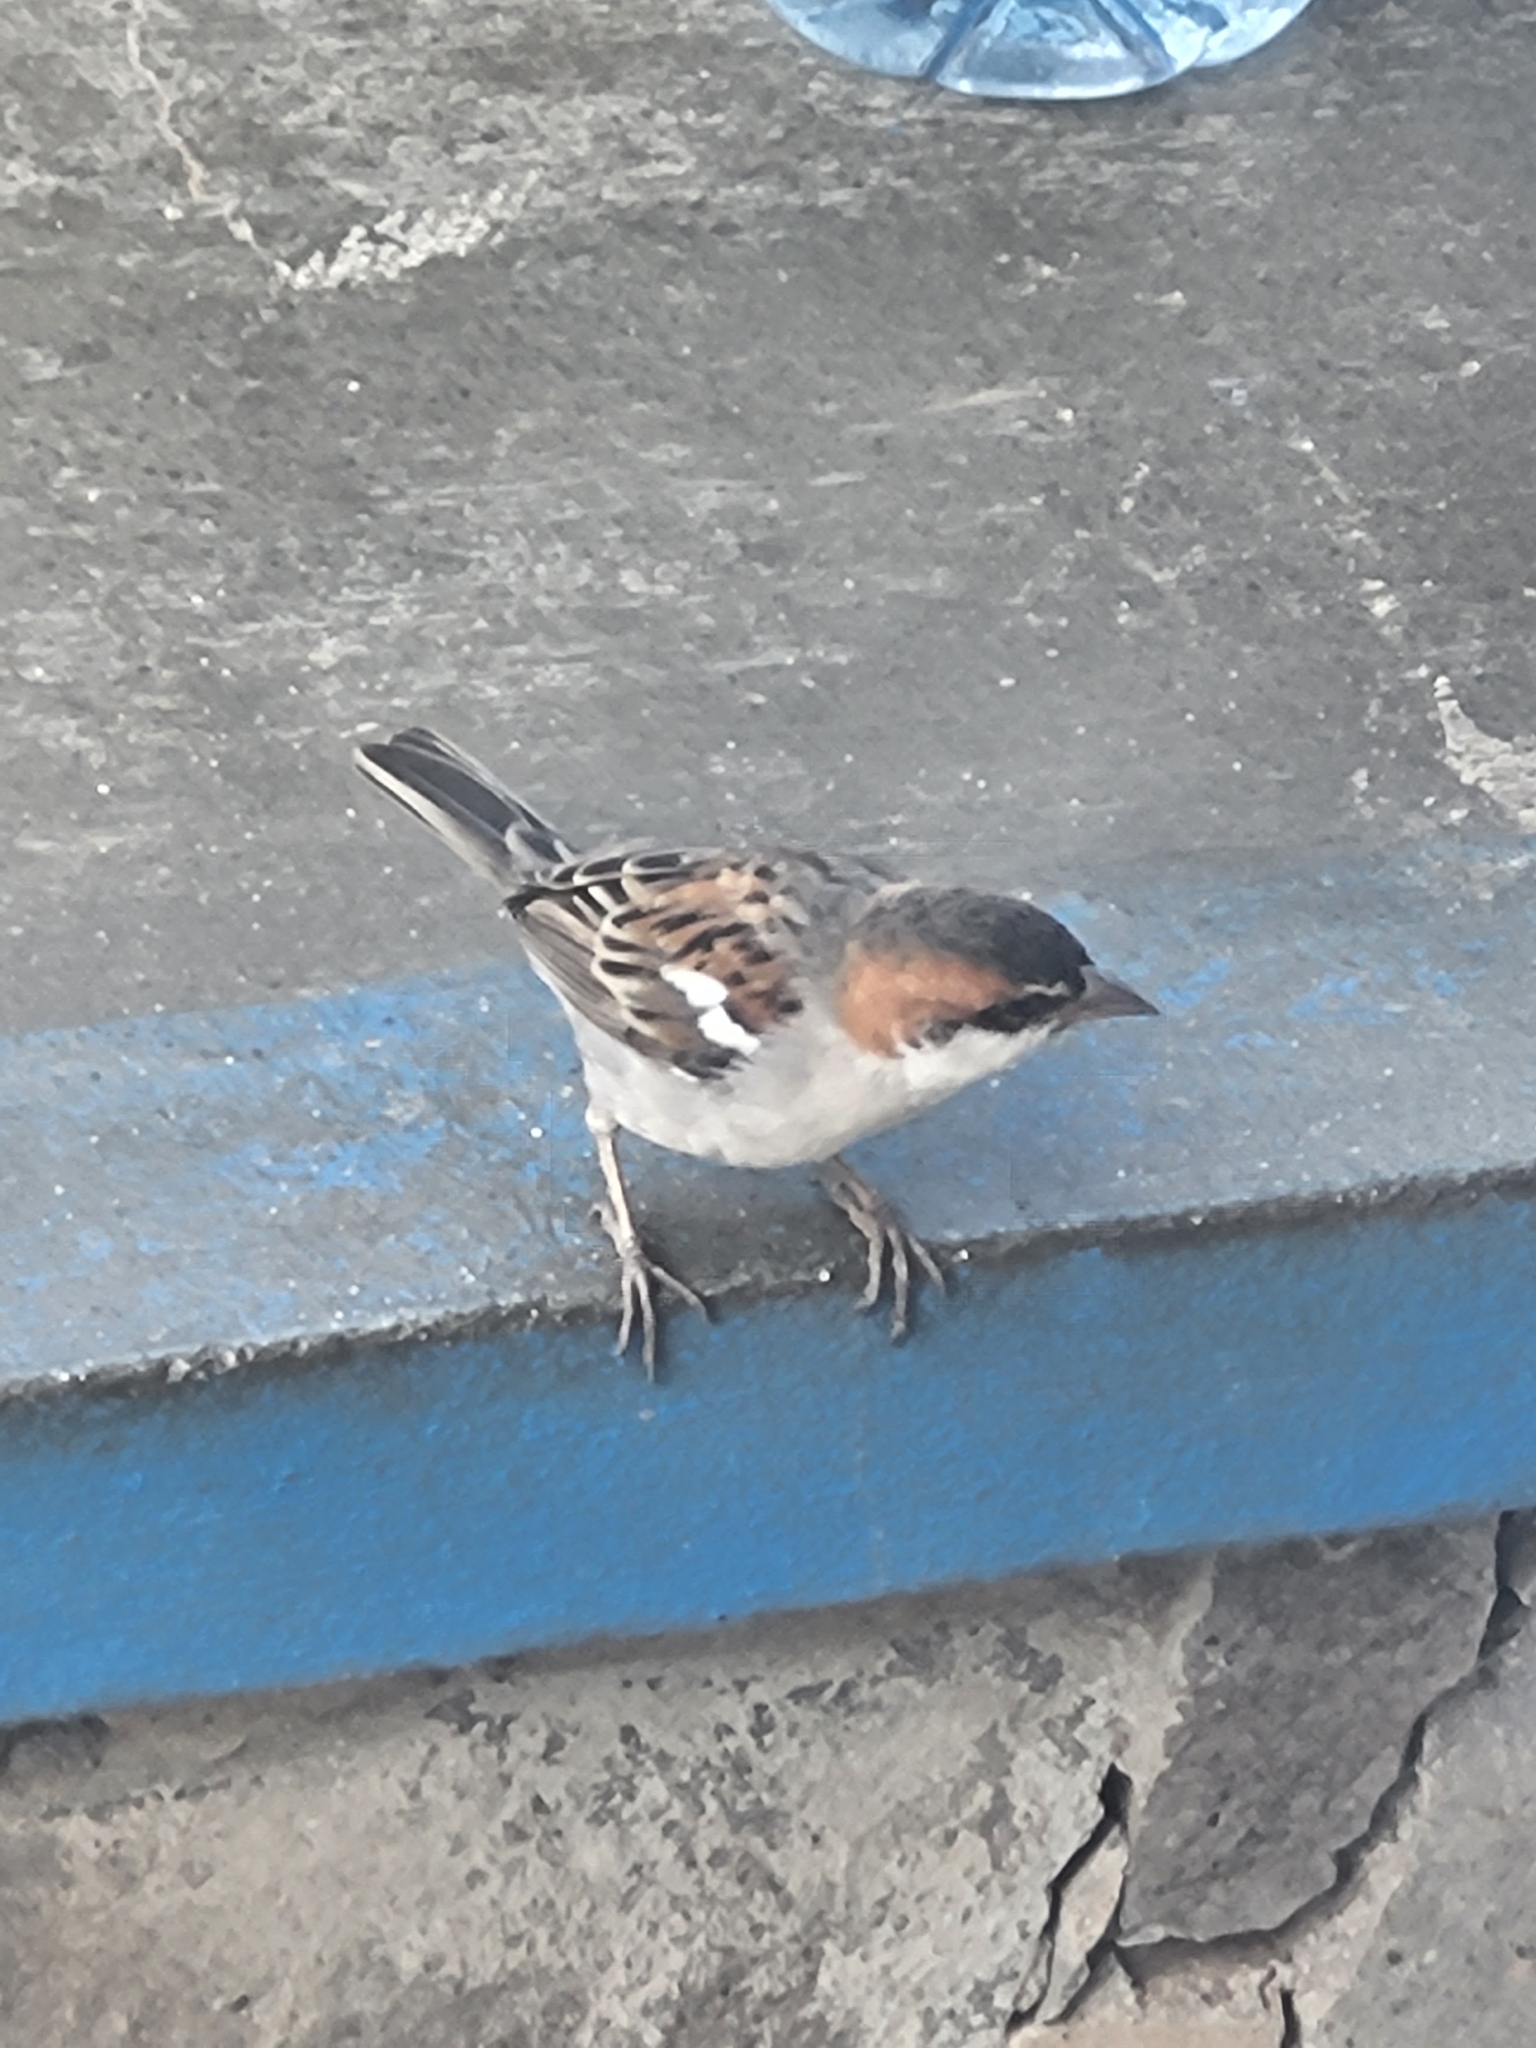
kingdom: Animalia
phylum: Chordata
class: Aves
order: Passeriformes
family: Passeridae
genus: Passer
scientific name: Passer iagoensis
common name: Iago sparrow
